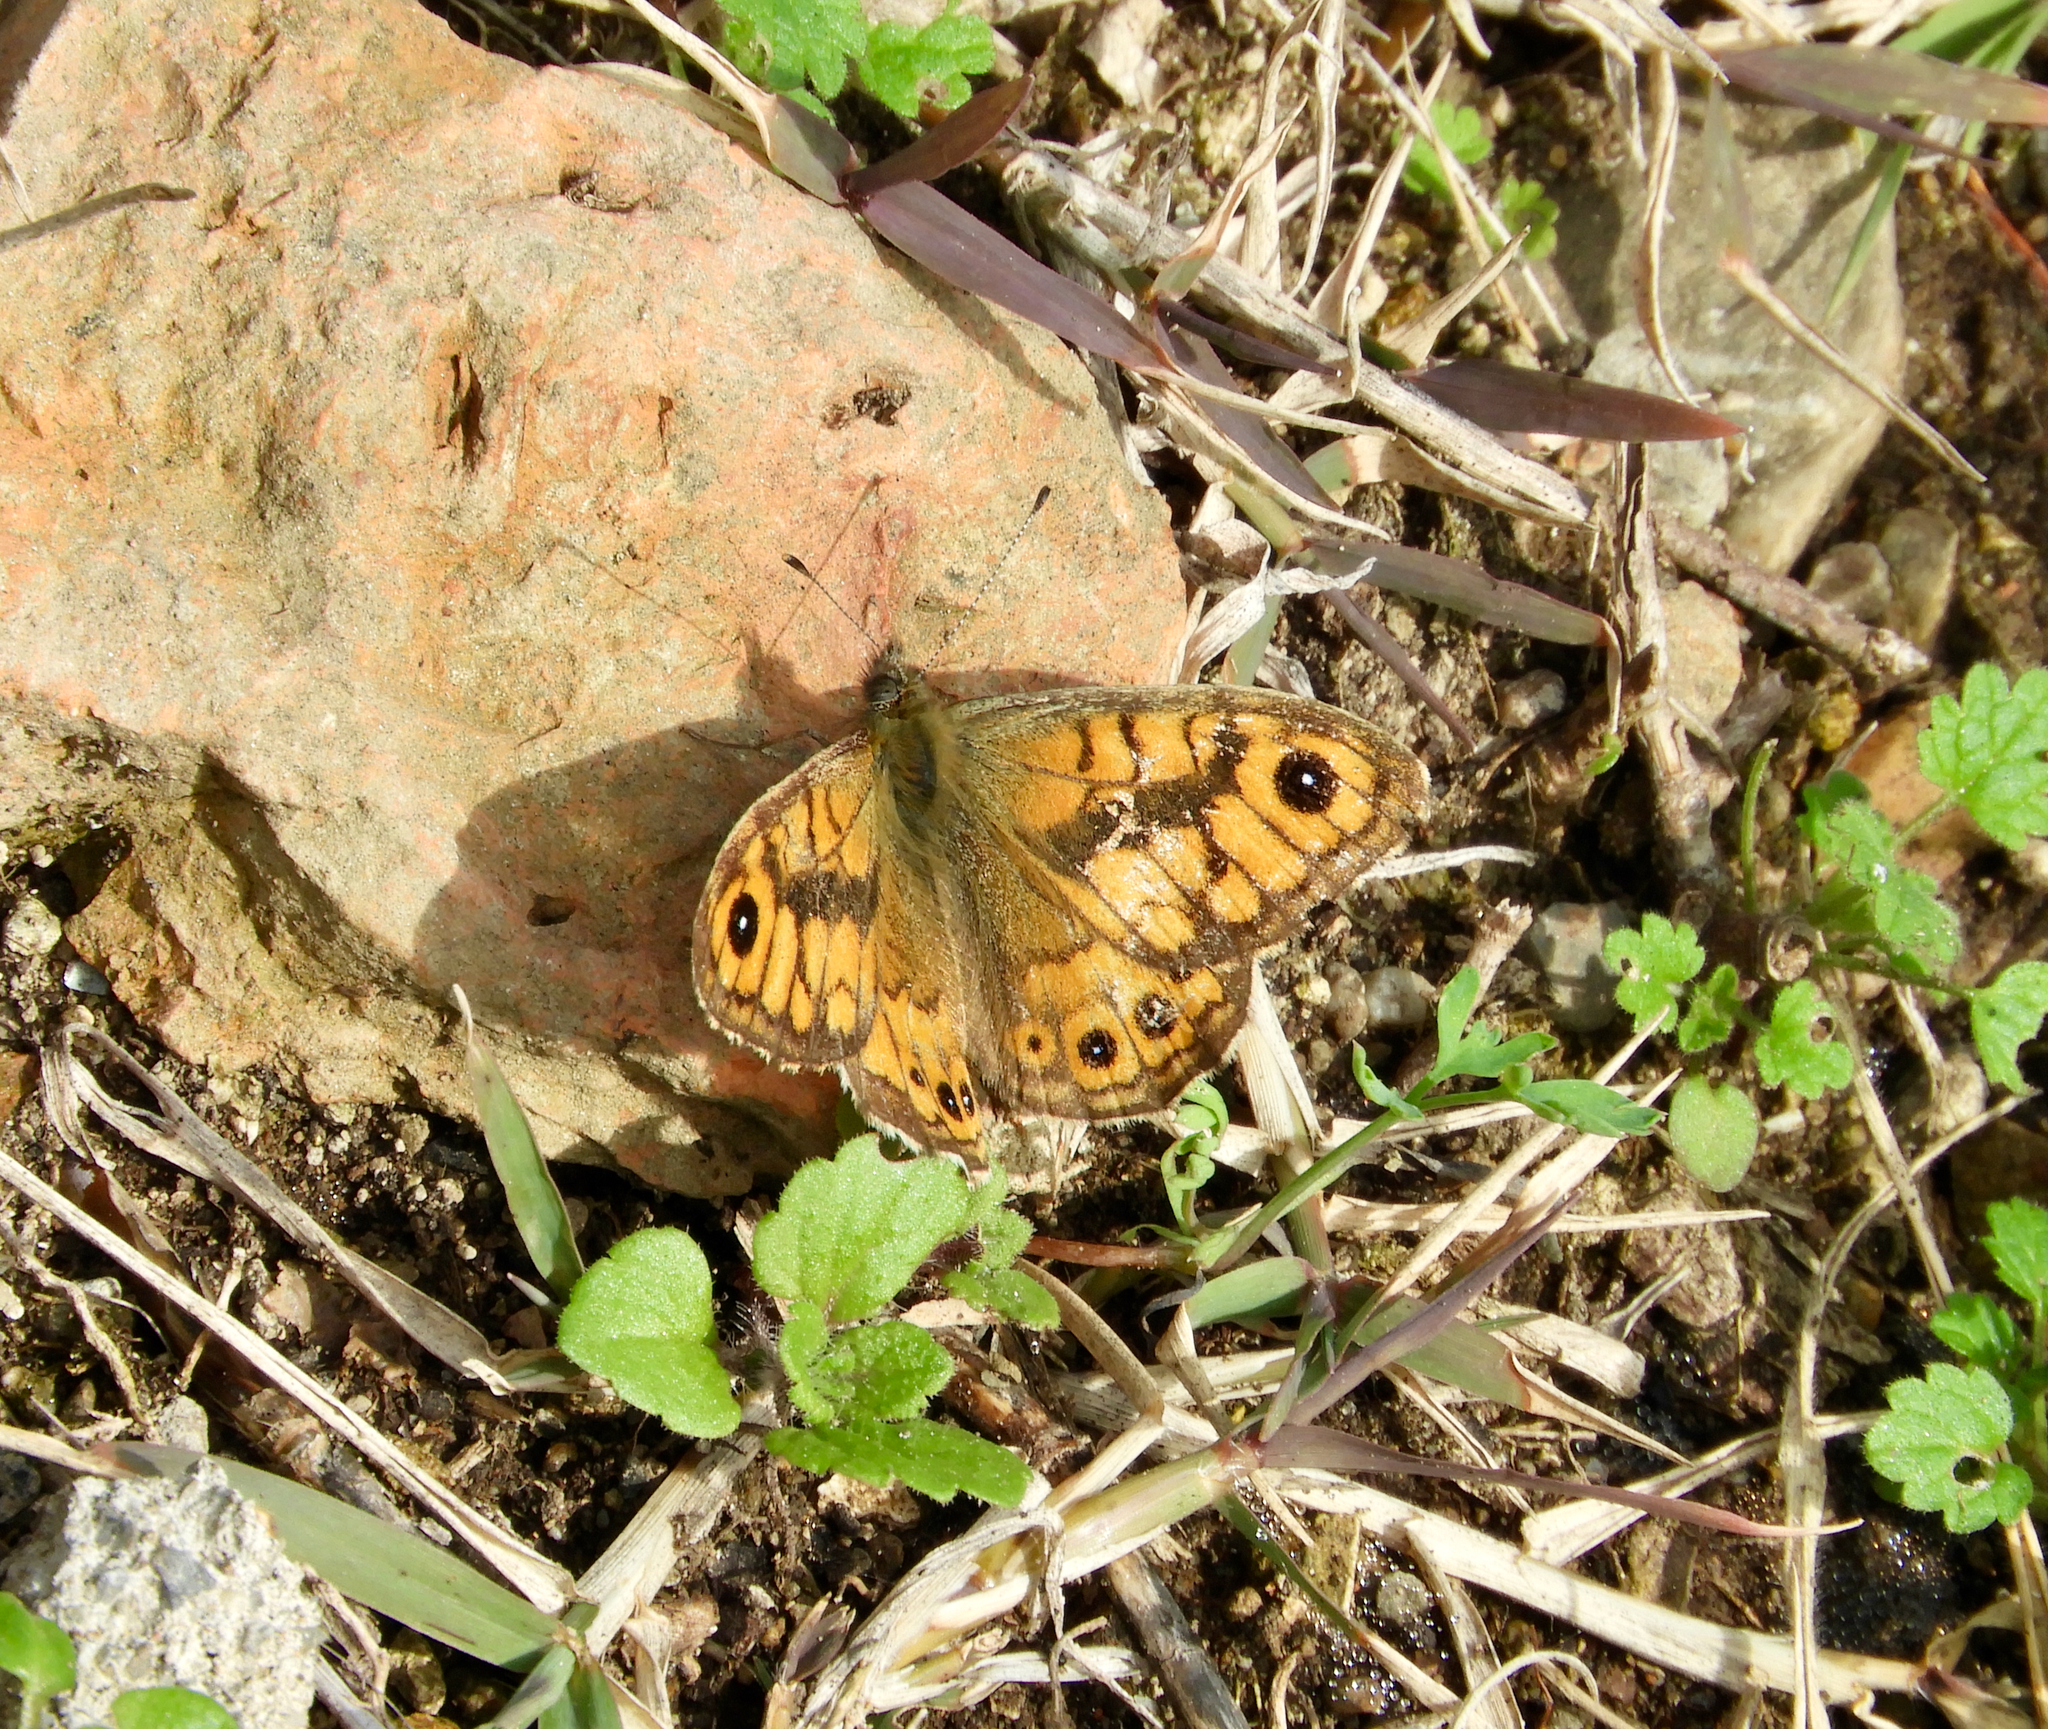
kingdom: Animalia
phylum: Arthropoda
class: Insecta
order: Lepidoptera
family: Nymphalidae
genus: Pararge
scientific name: Pararge Lasiommata megera
